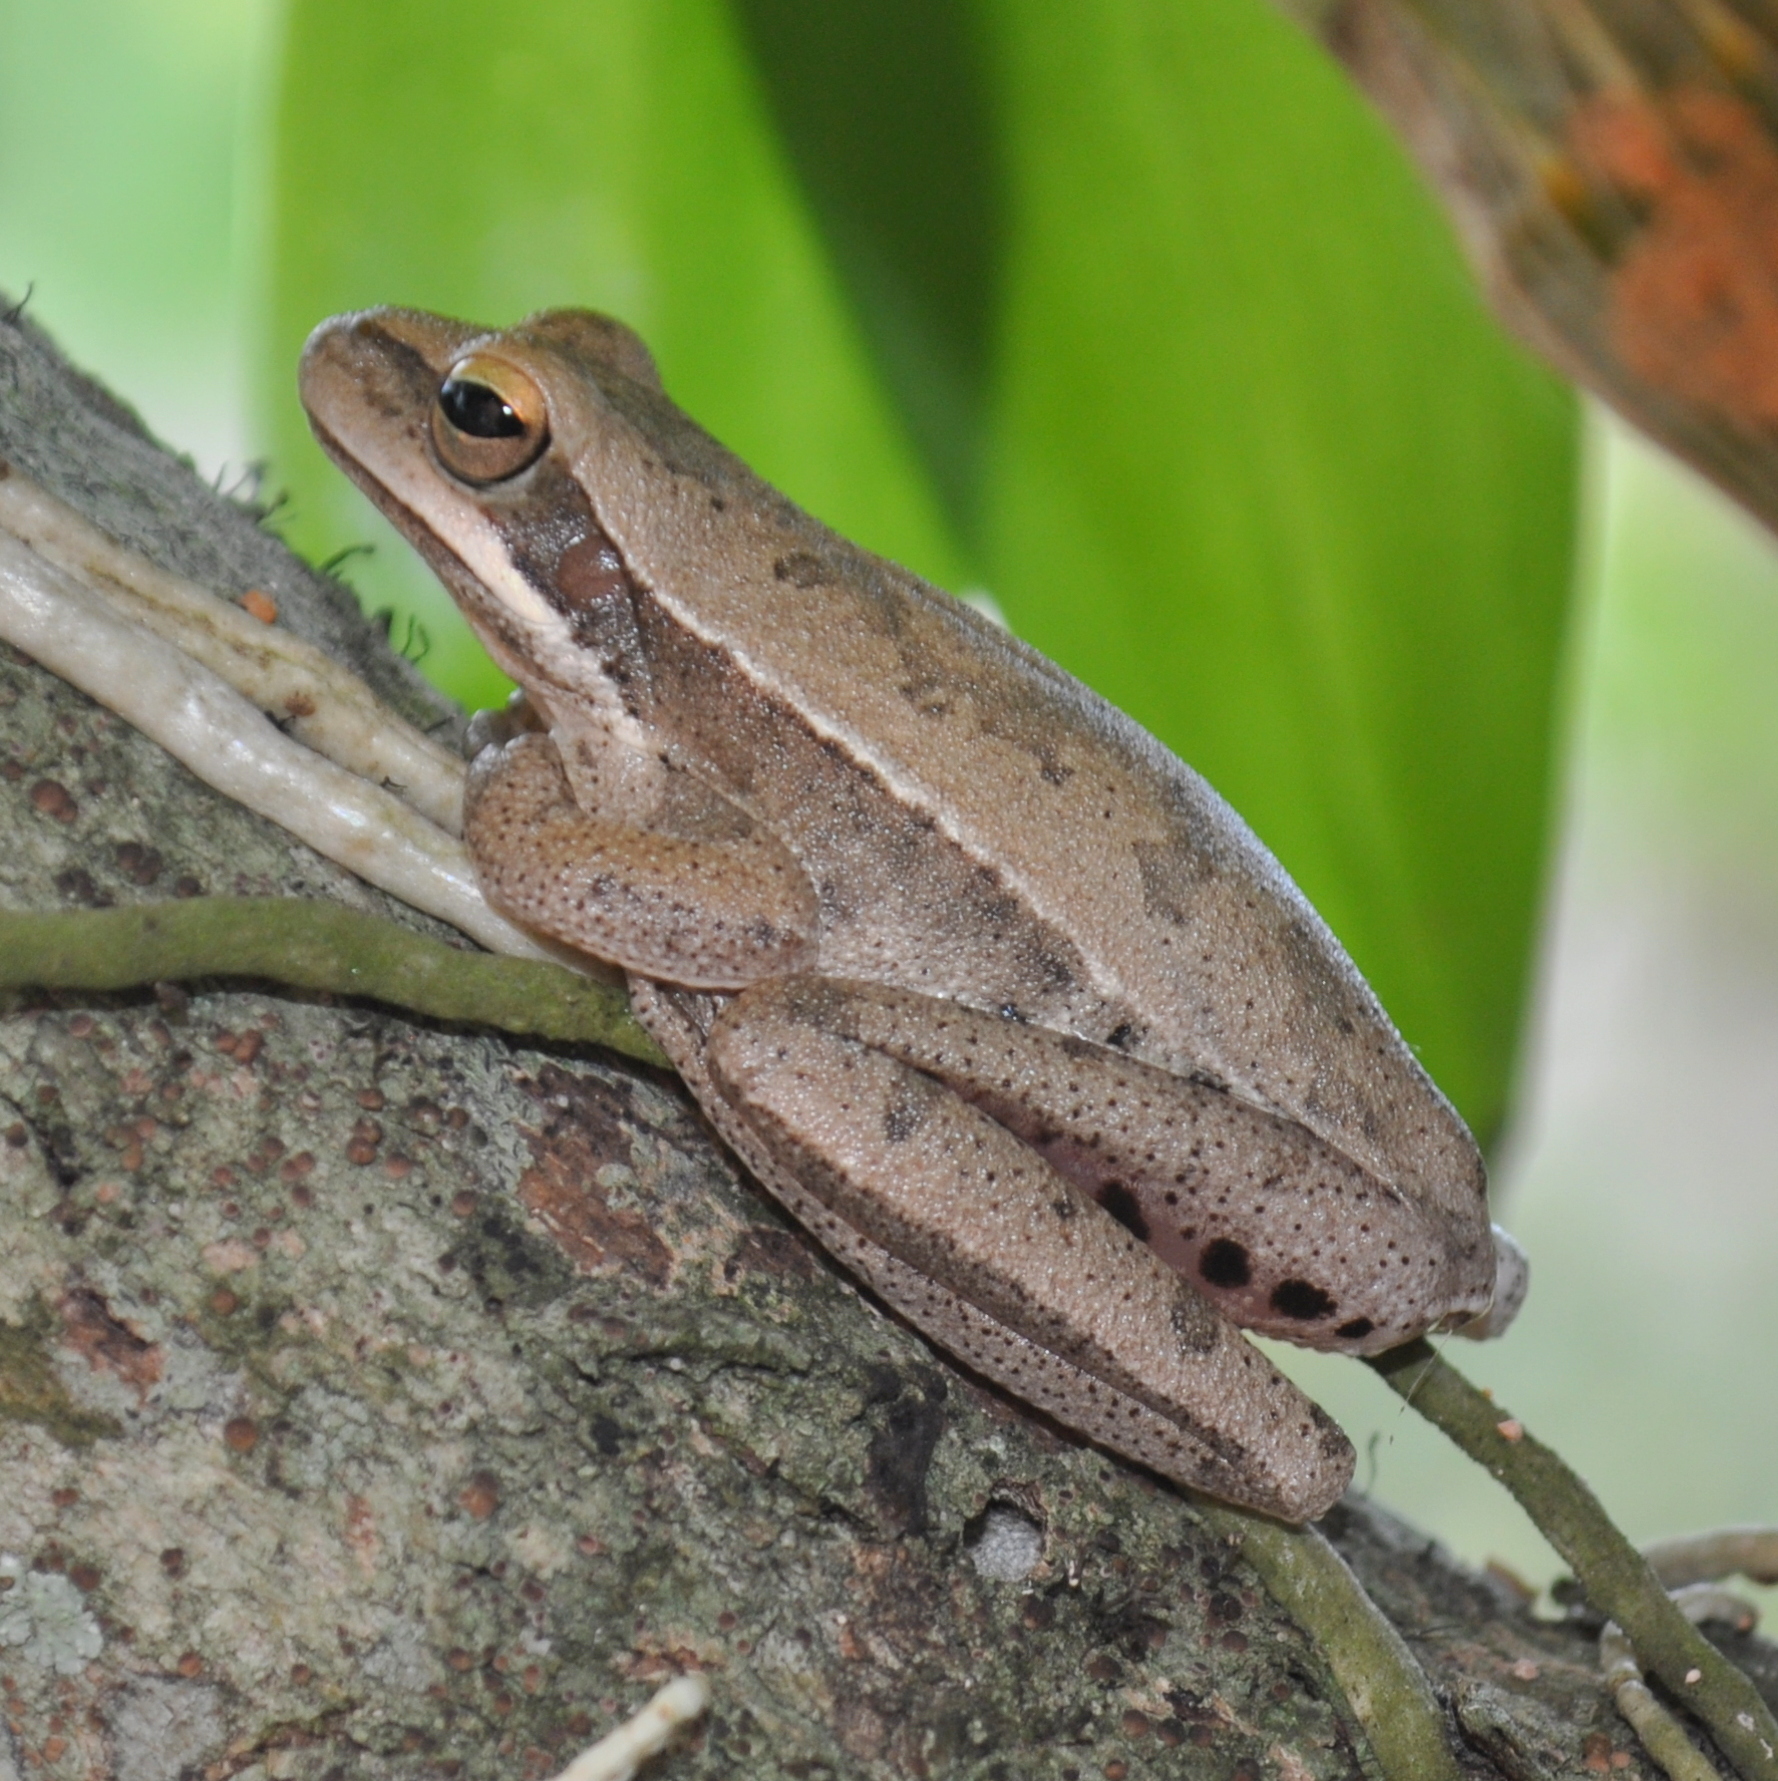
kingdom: Animalia
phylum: Chordata
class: Amphibia
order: Anura
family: Hylidae
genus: Boana
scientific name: Boana pulchella
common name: Montevideo treefrog
